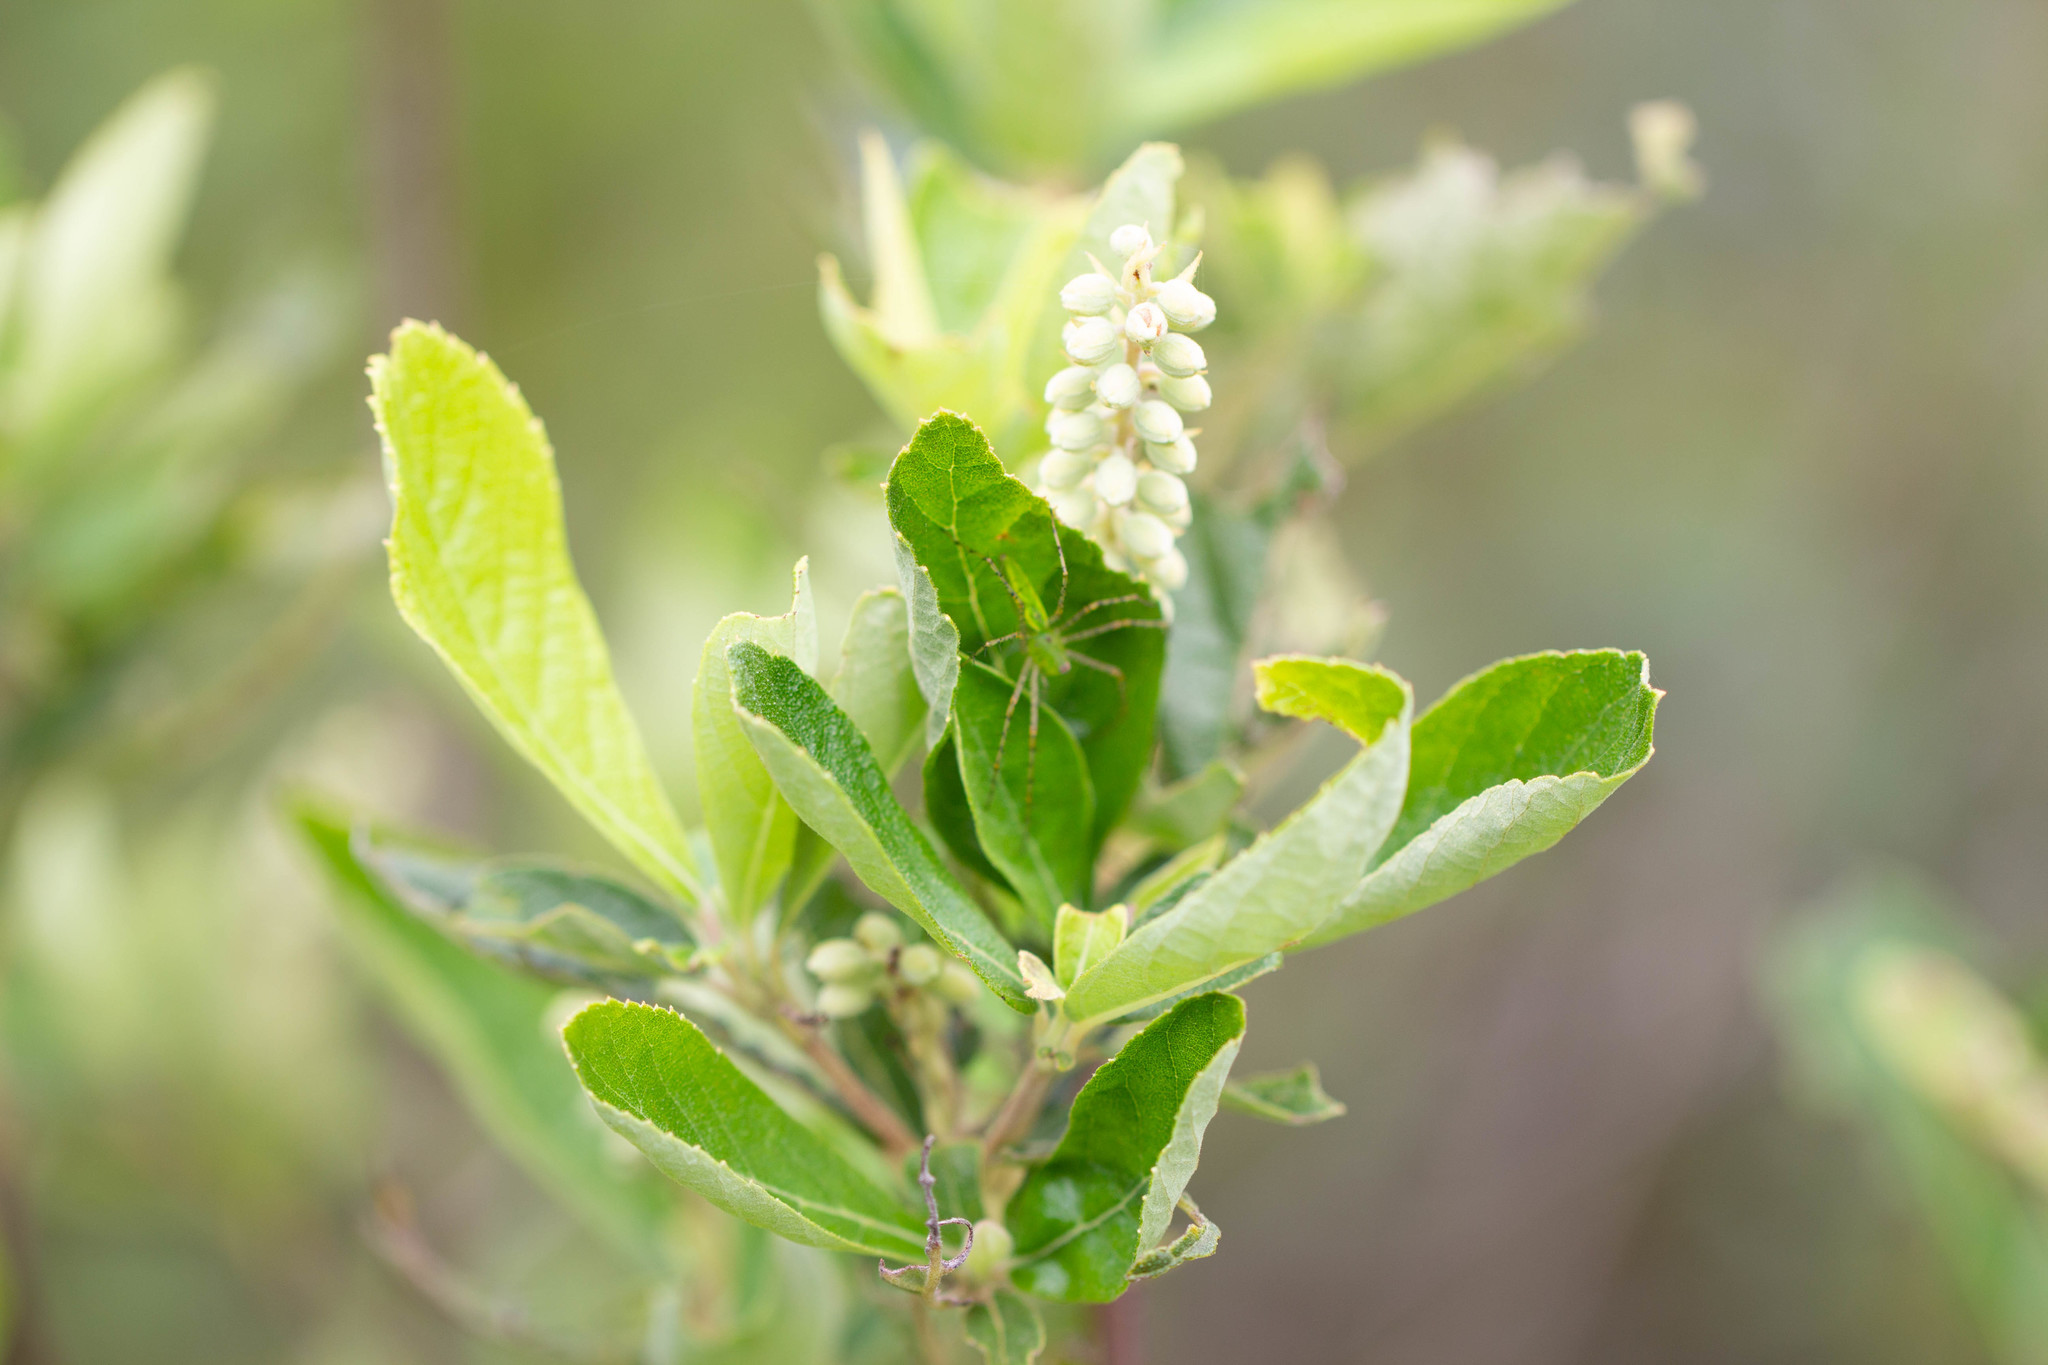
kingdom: Plantae
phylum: Tracheophyta
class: Magnoliopsida
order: Ericales
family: Clethraceae
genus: Clethra
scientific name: Clethra tomentosa
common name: Downy sweet pepperbush
